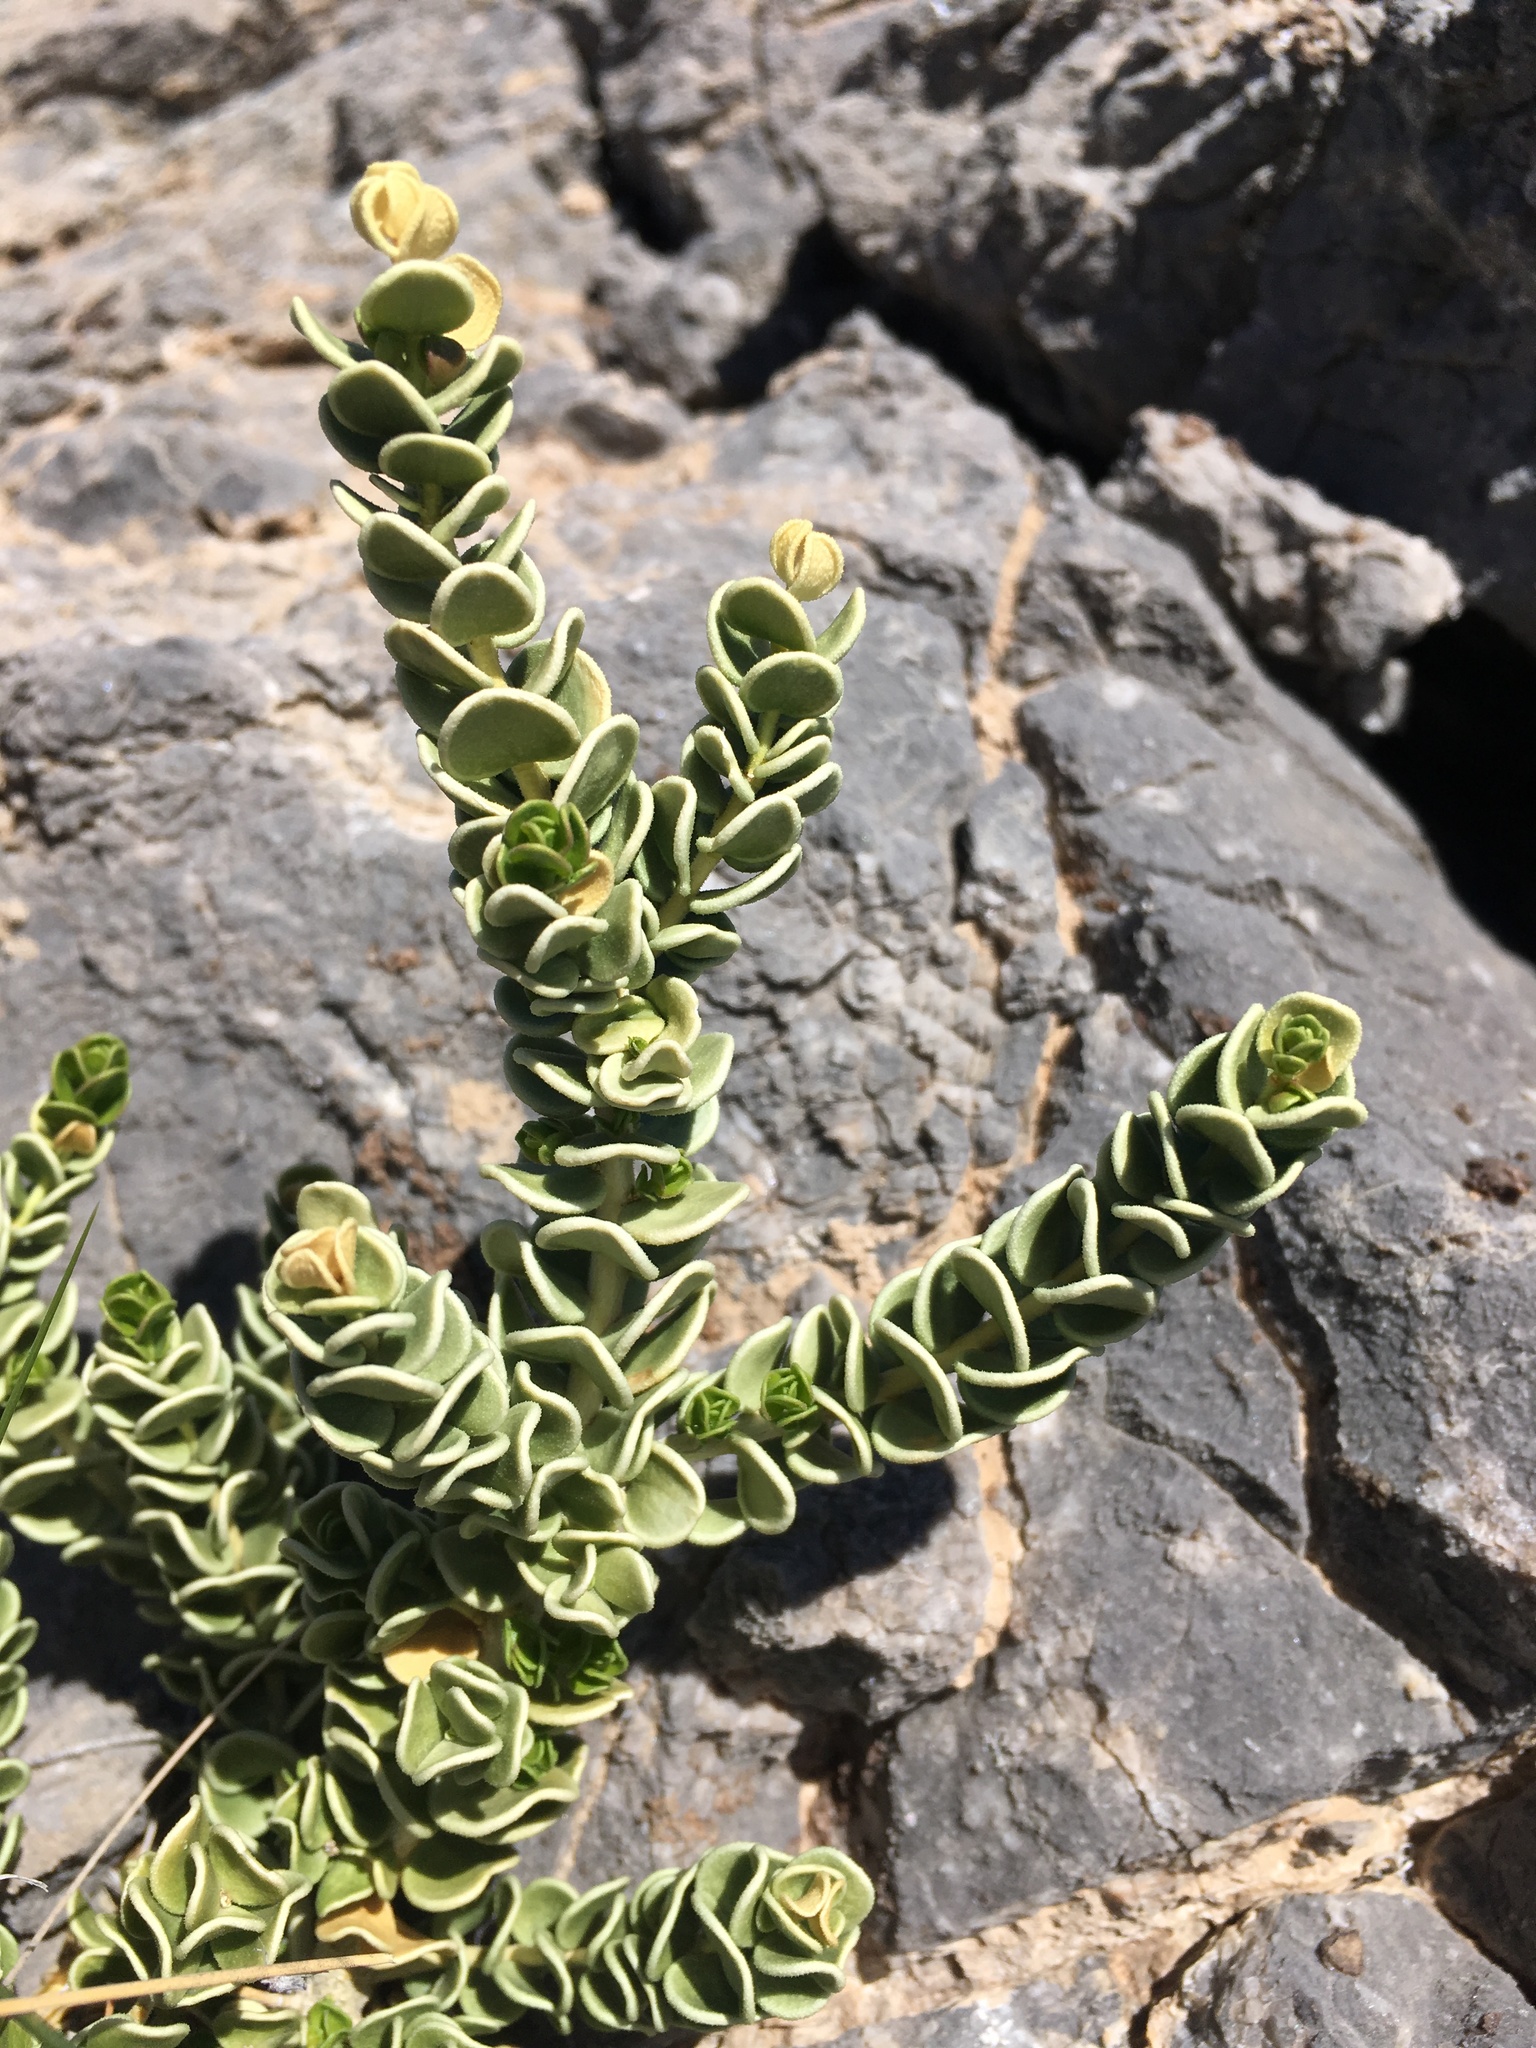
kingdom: Plantae
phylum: Tracheophyta
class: Magnoliopsida
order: Celastrales
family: Celastraceae
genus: Mortonia
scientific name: Mortonia utahensis
